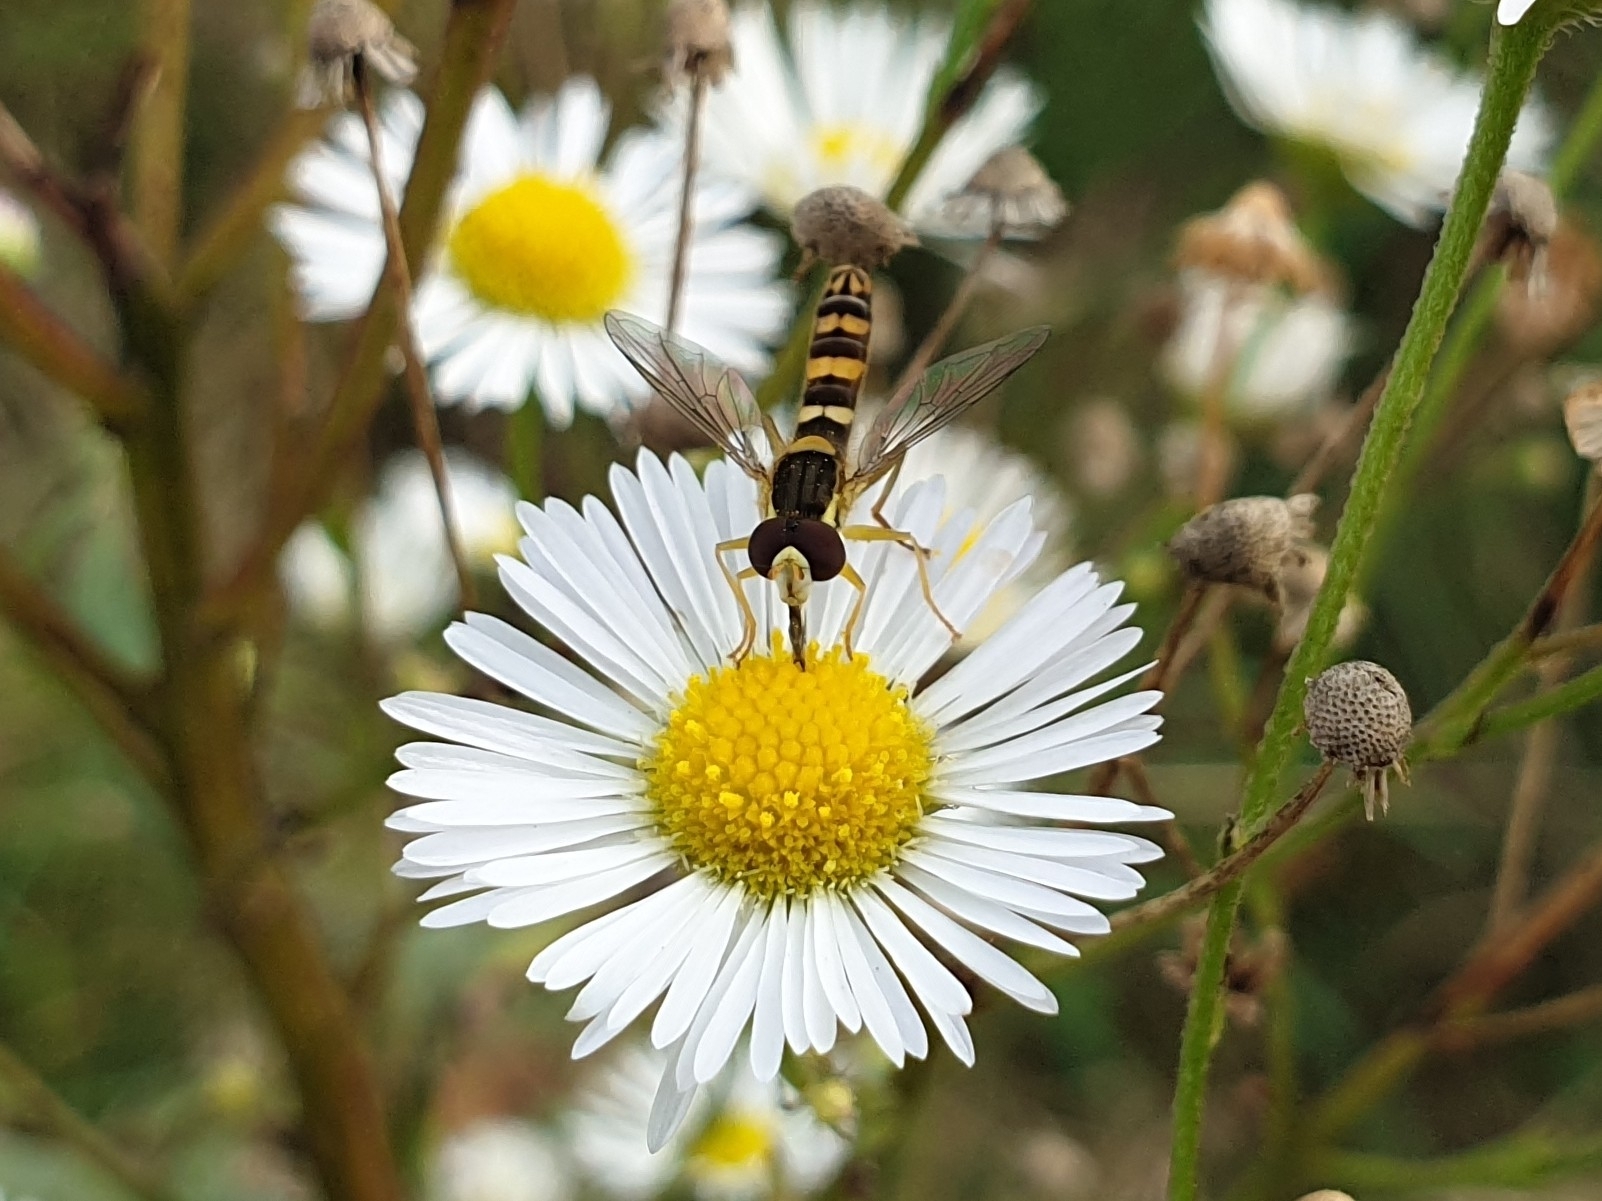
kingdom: Animalia
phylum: Arthropoda
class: Insecta
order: Diptera
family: Syrphidae
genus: Sphaerophoria
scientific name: Sphaerophoria scripta
